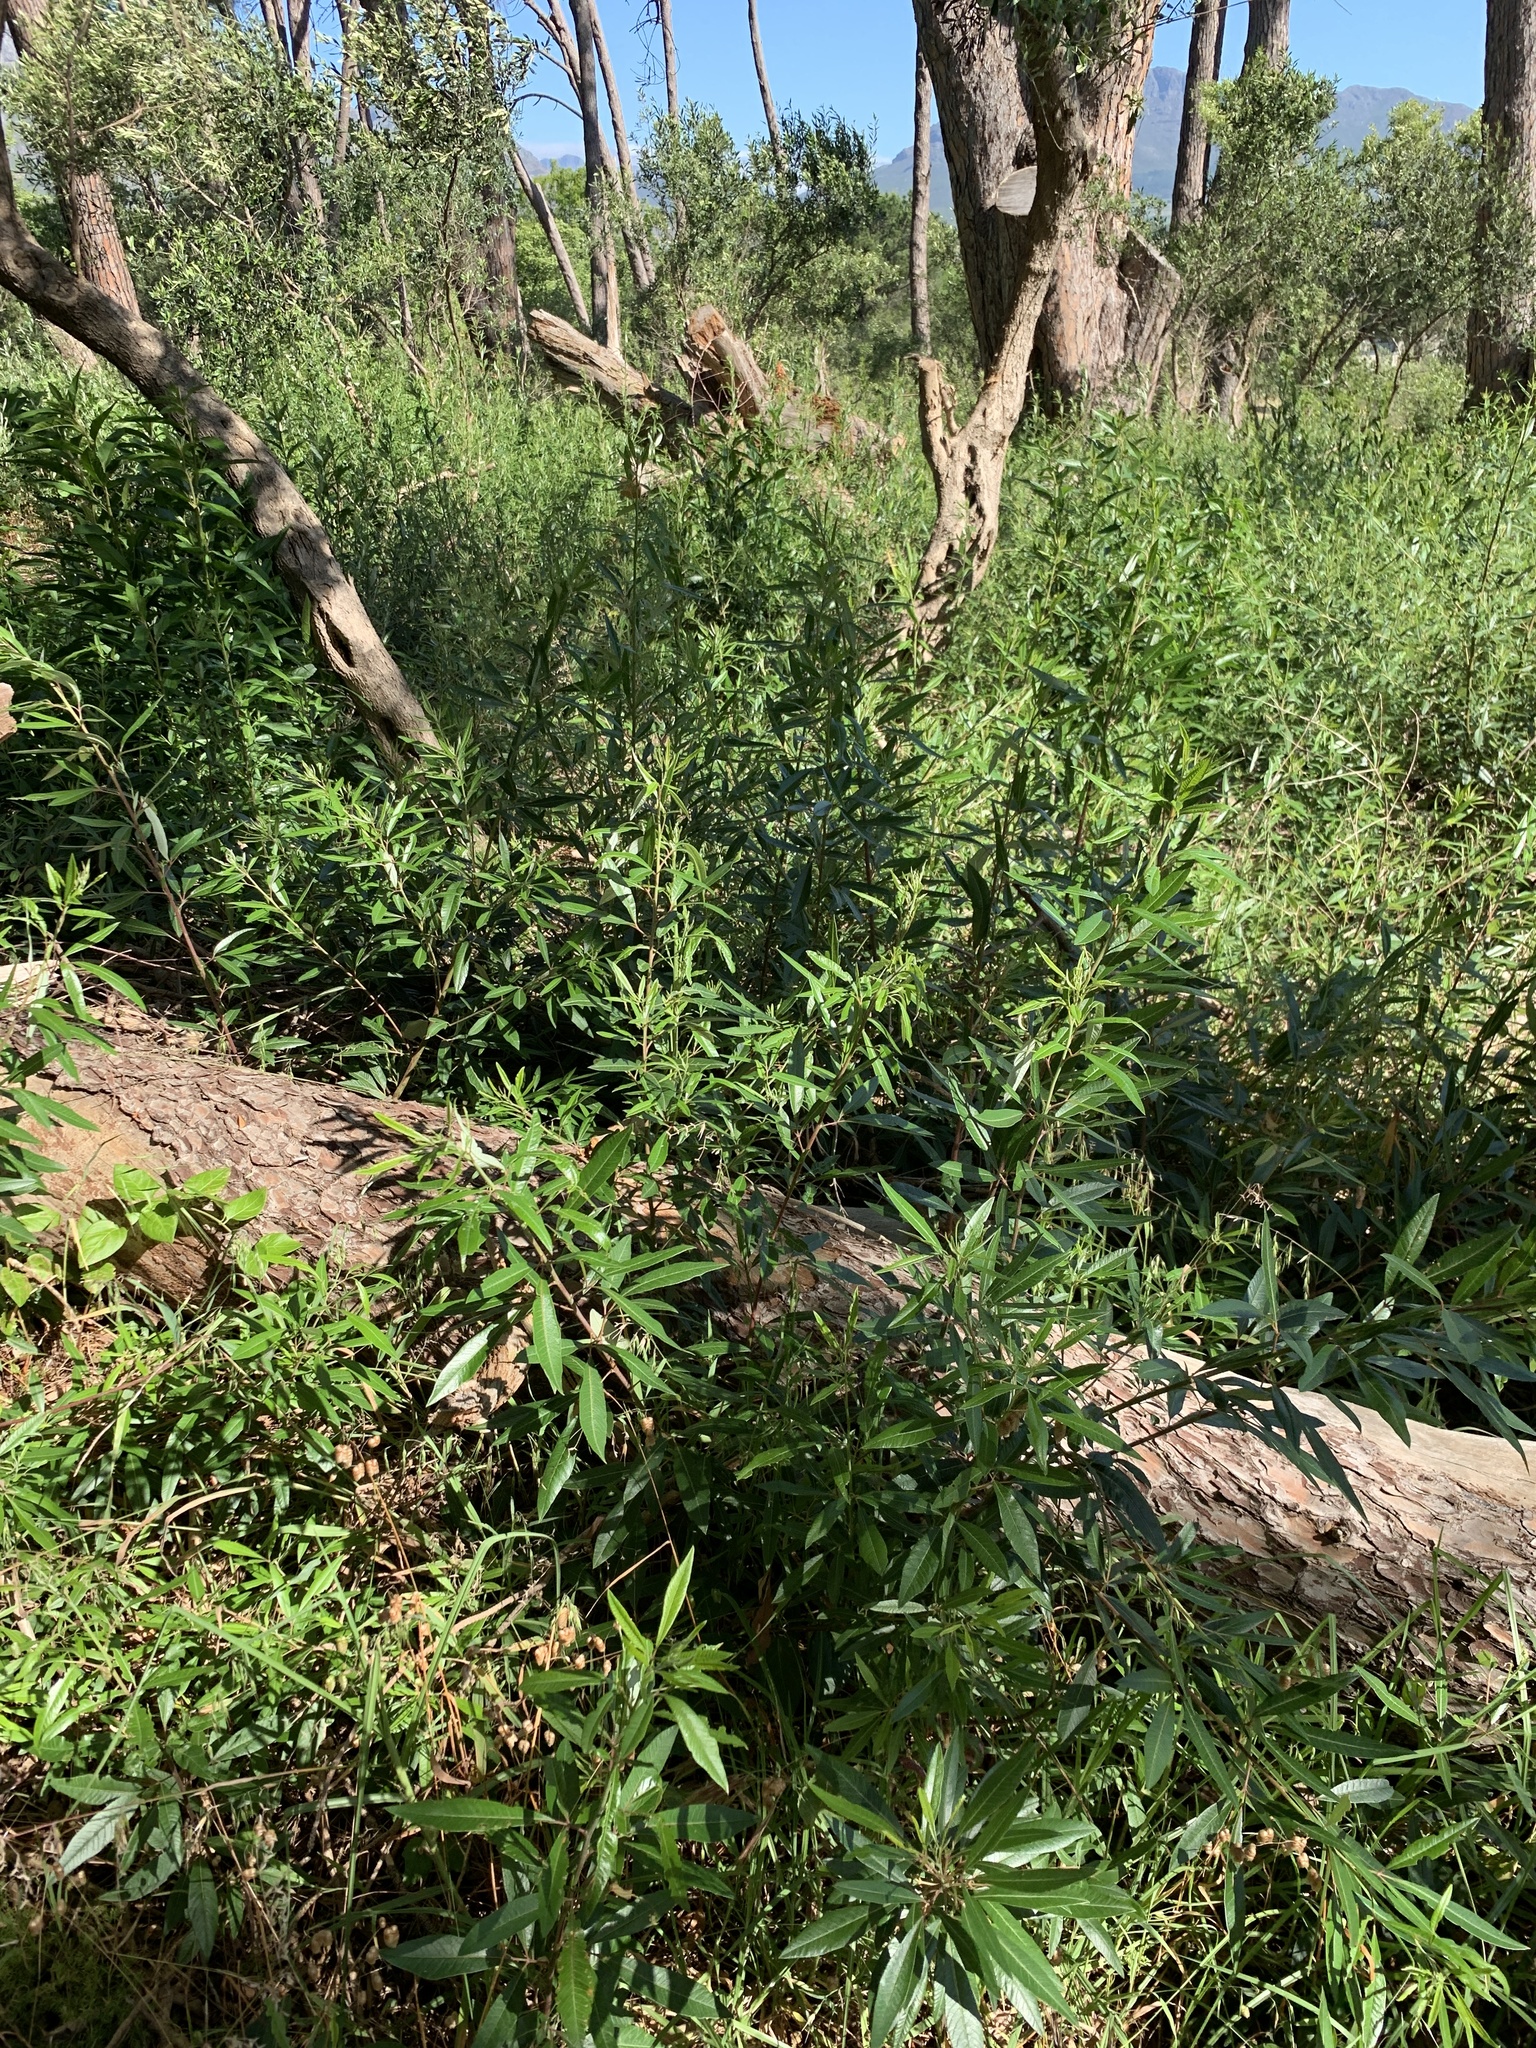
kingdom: Plantae
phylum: Tracheophyta
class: Magnoliopsida
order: Sapindales
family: Anacardiaceae
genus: Searsia
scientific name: Searsia angustifolia
